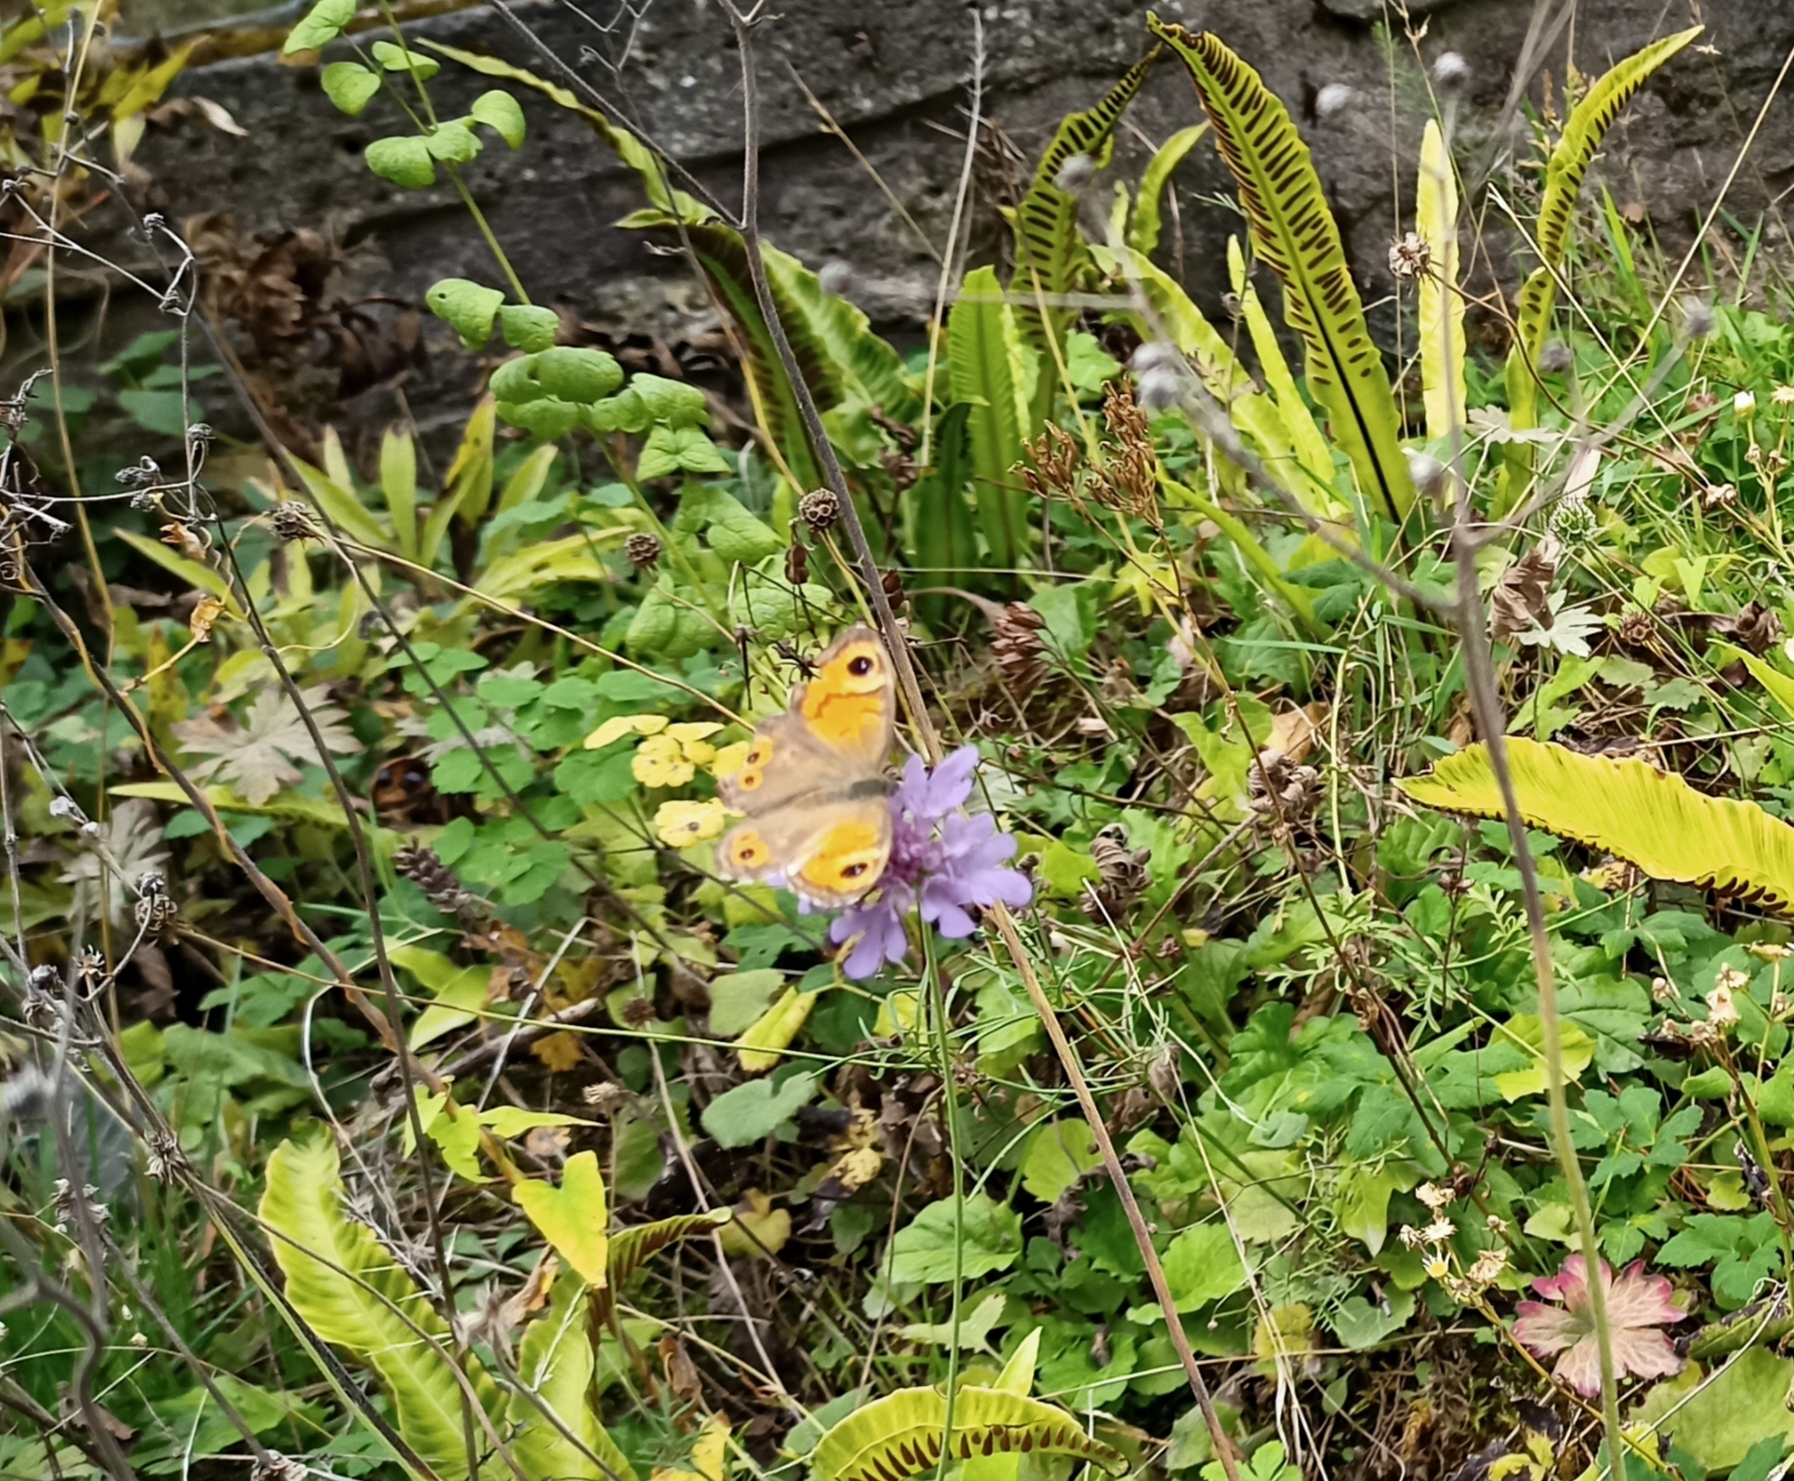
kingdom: Animalia
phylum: Arthropoda
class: Insecta
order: Lepidoptera
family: Nymphalidae
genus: Pararge
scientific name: Pararge Lasiommata maera
